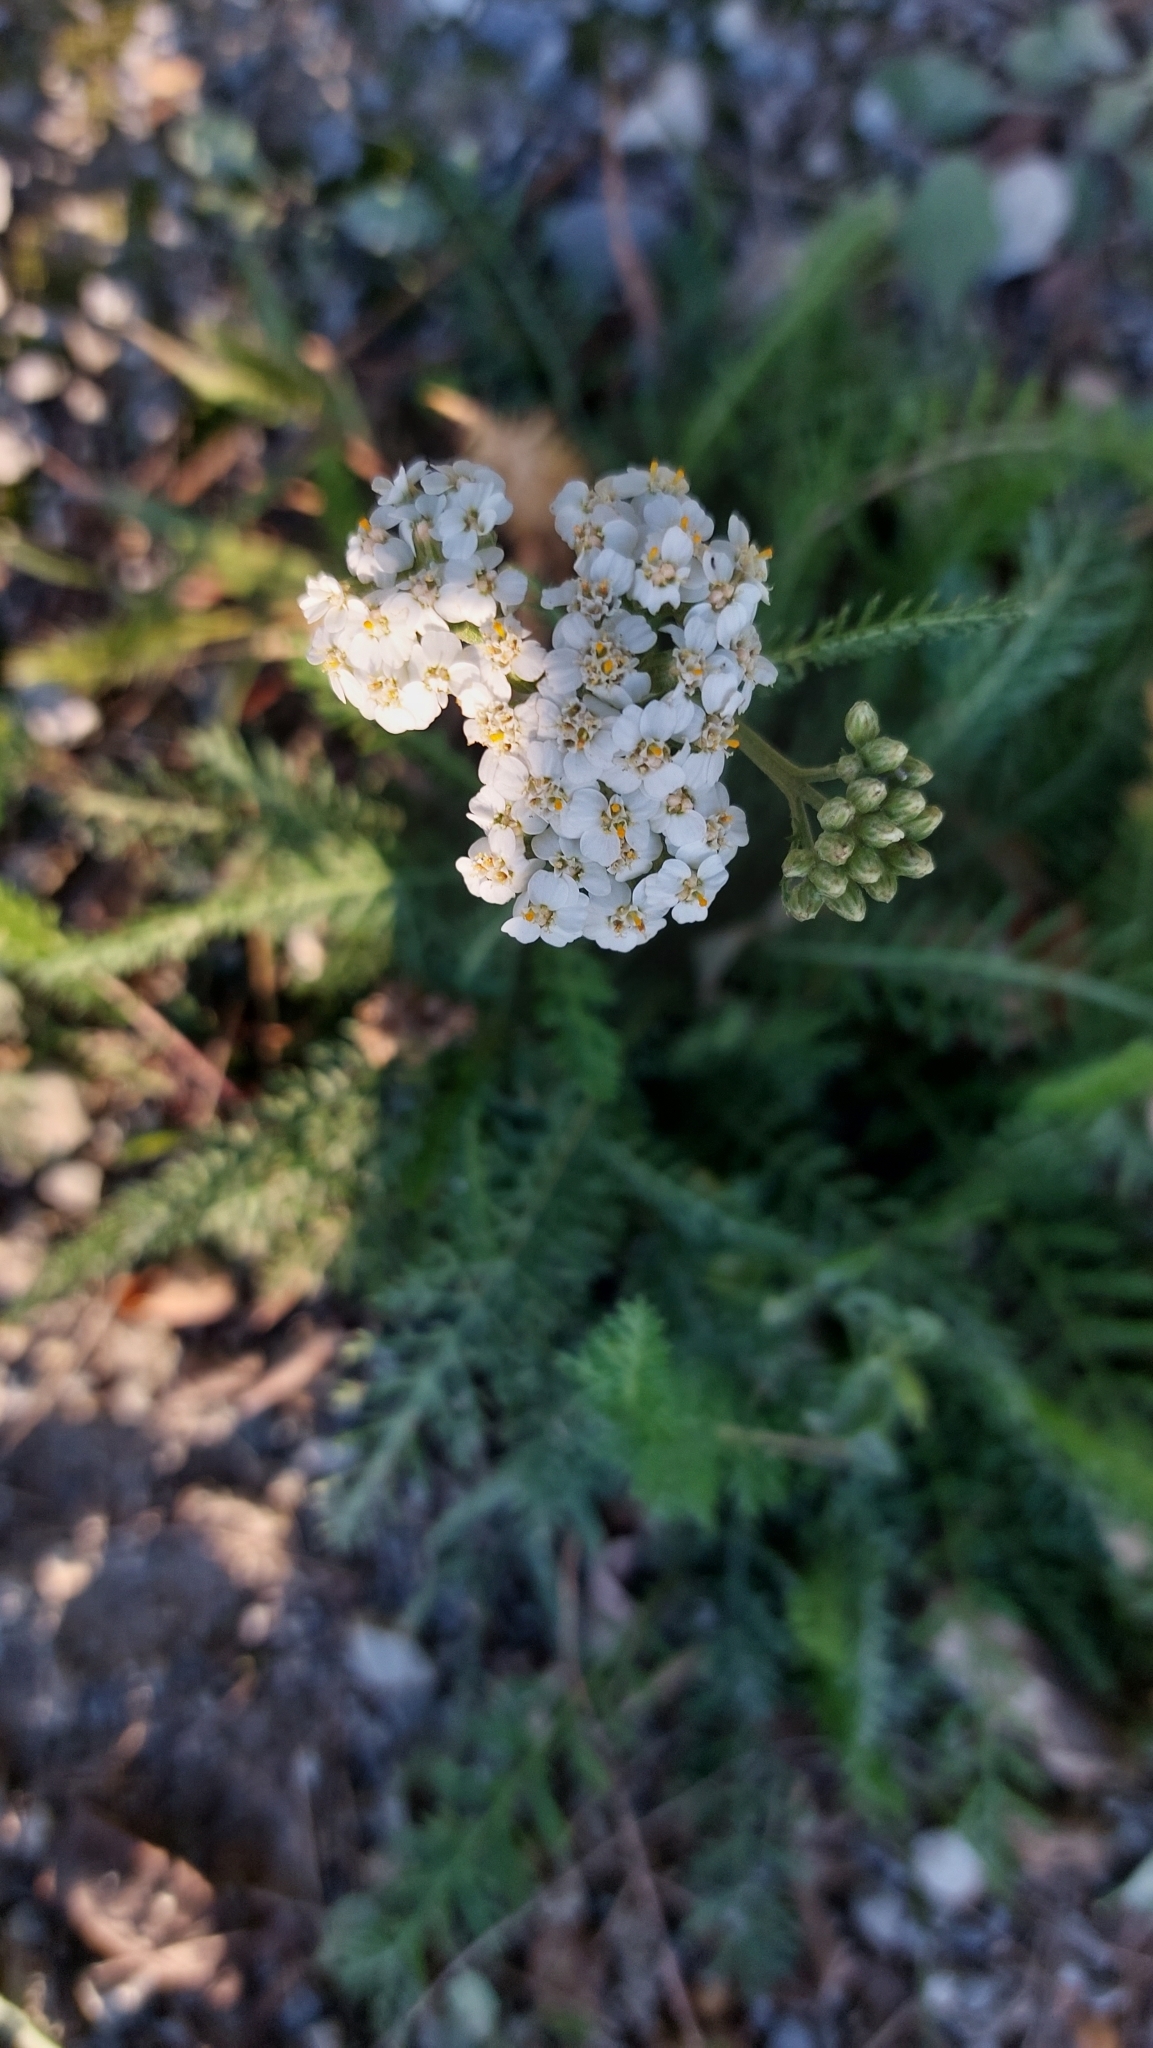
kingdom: Plantae
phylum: Tracheophyta
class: Magnoliopsida
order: Asterales
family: Asteraceae
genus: Achillea
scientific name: Achillea
